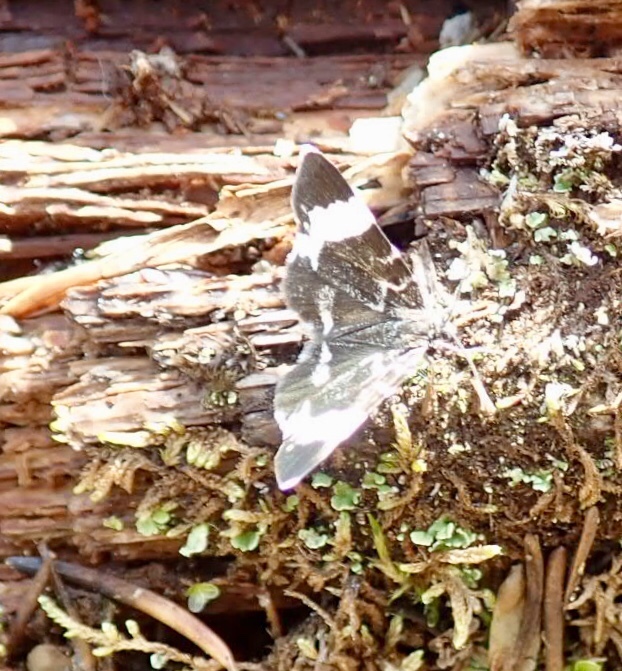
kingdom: Animalia
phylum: Arthropoda
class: Insecta
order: Lepidoptera
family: Geometridae
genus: Trichodezia
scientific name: Trichodezia albovittata
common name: White striped black
